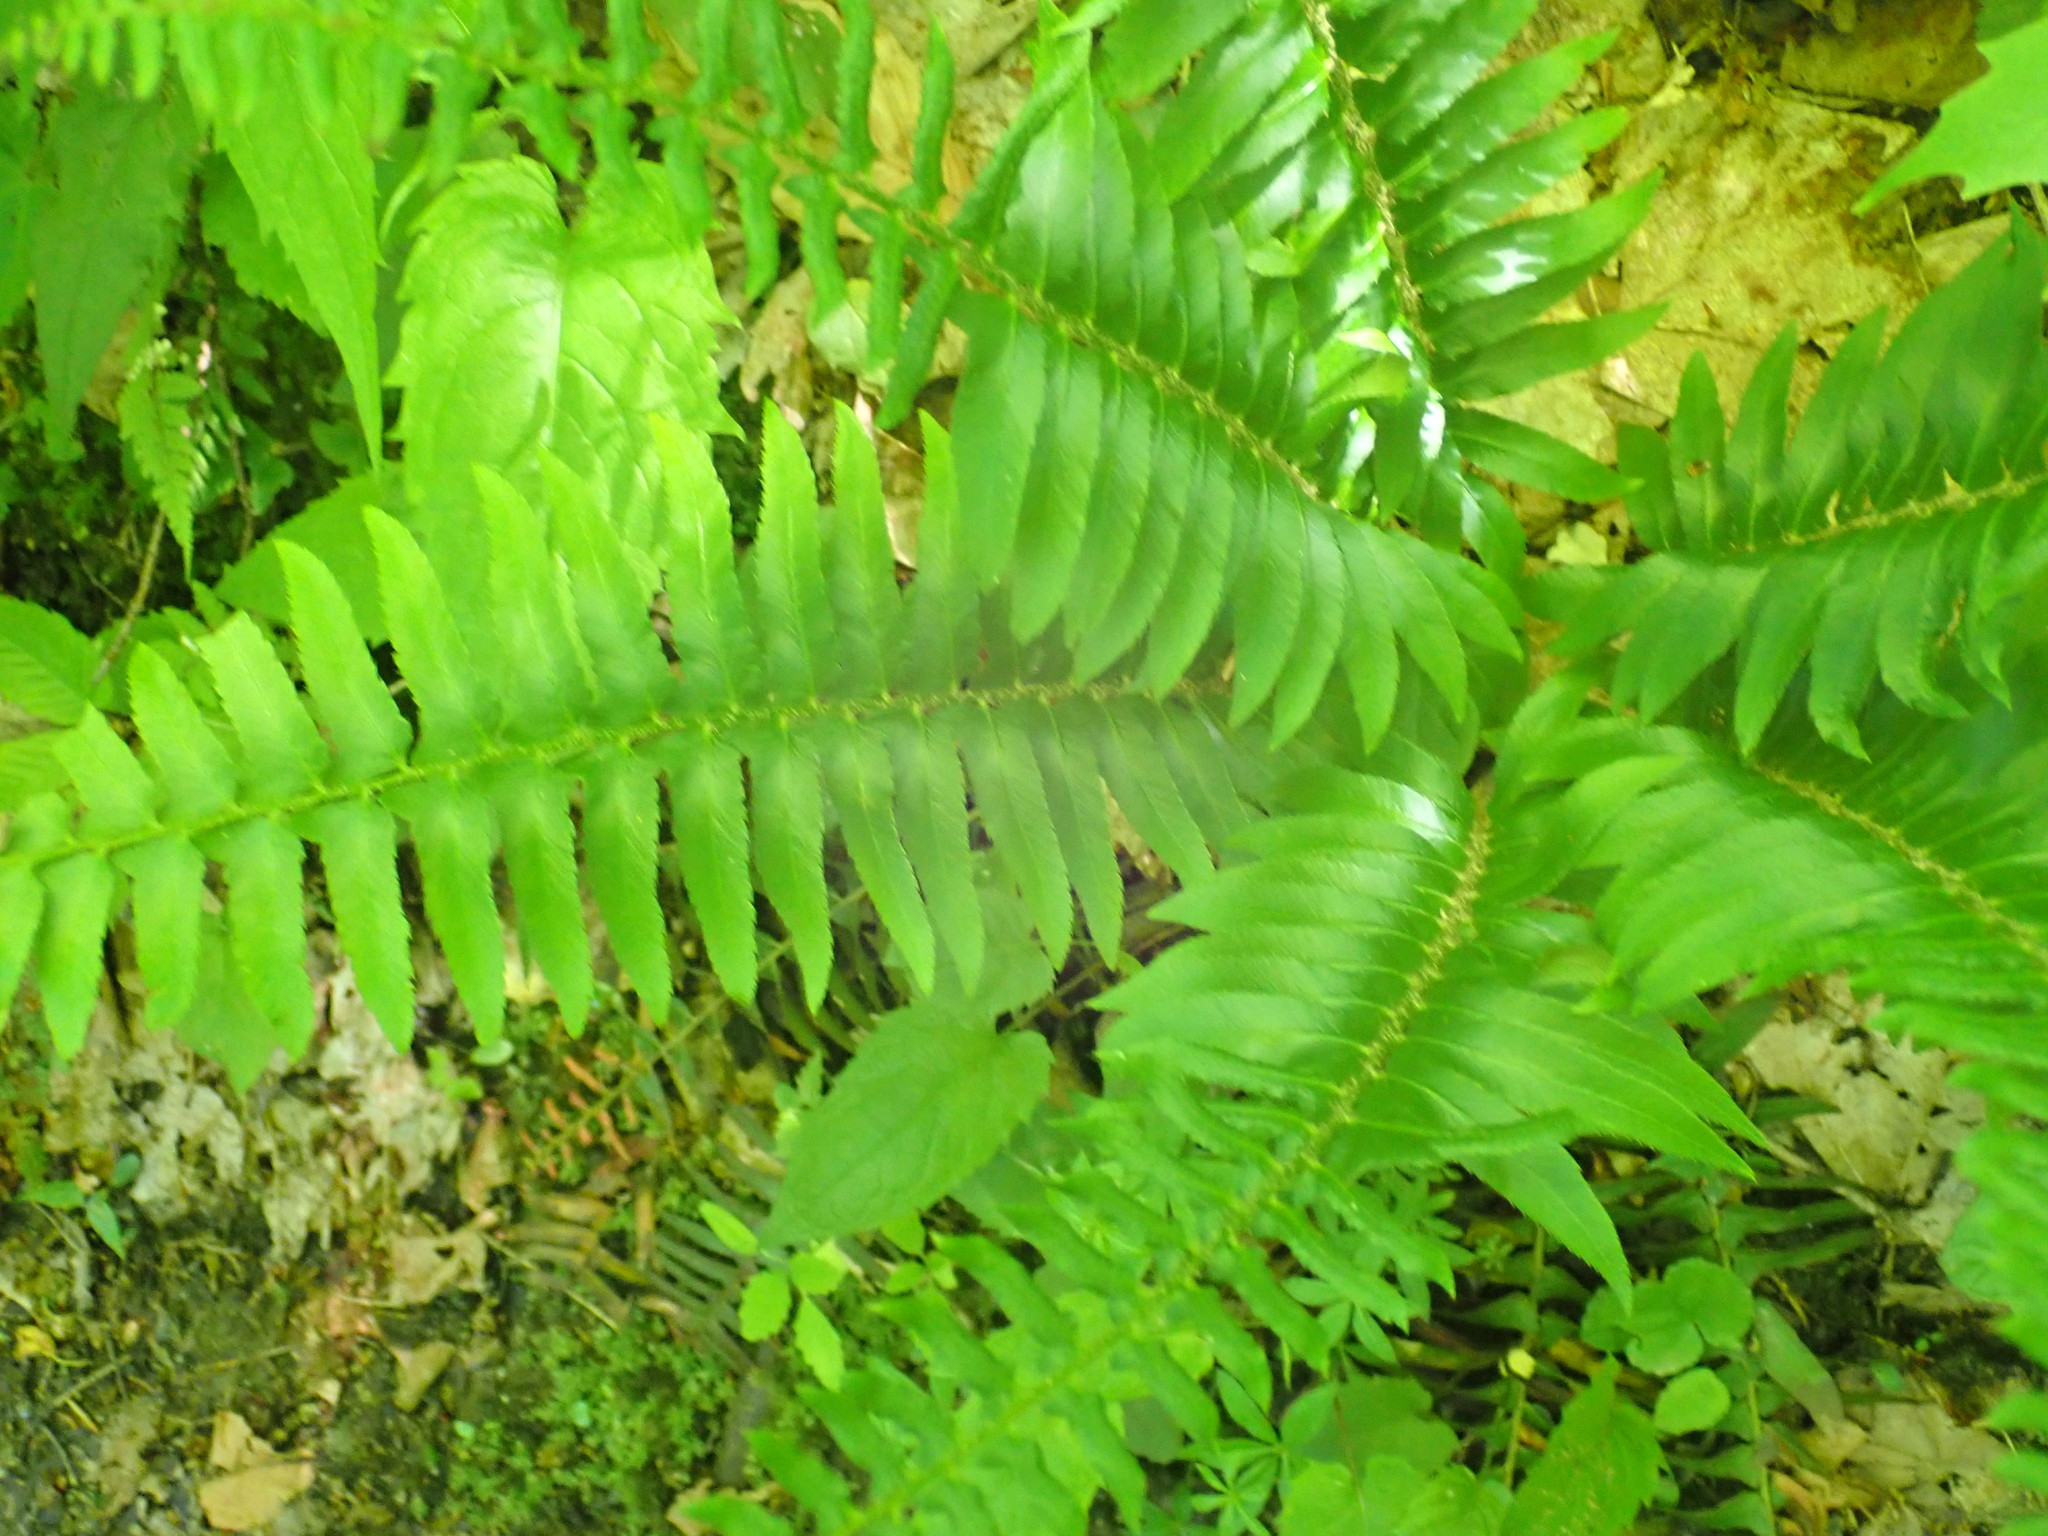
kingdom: Plantae
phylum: Tracheophyta
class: Polypodiopsida
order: Polypodiales
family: Dryopteridaceae
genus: Polystichum
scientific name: Polystichum acrostichoides
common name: Christmas fern
